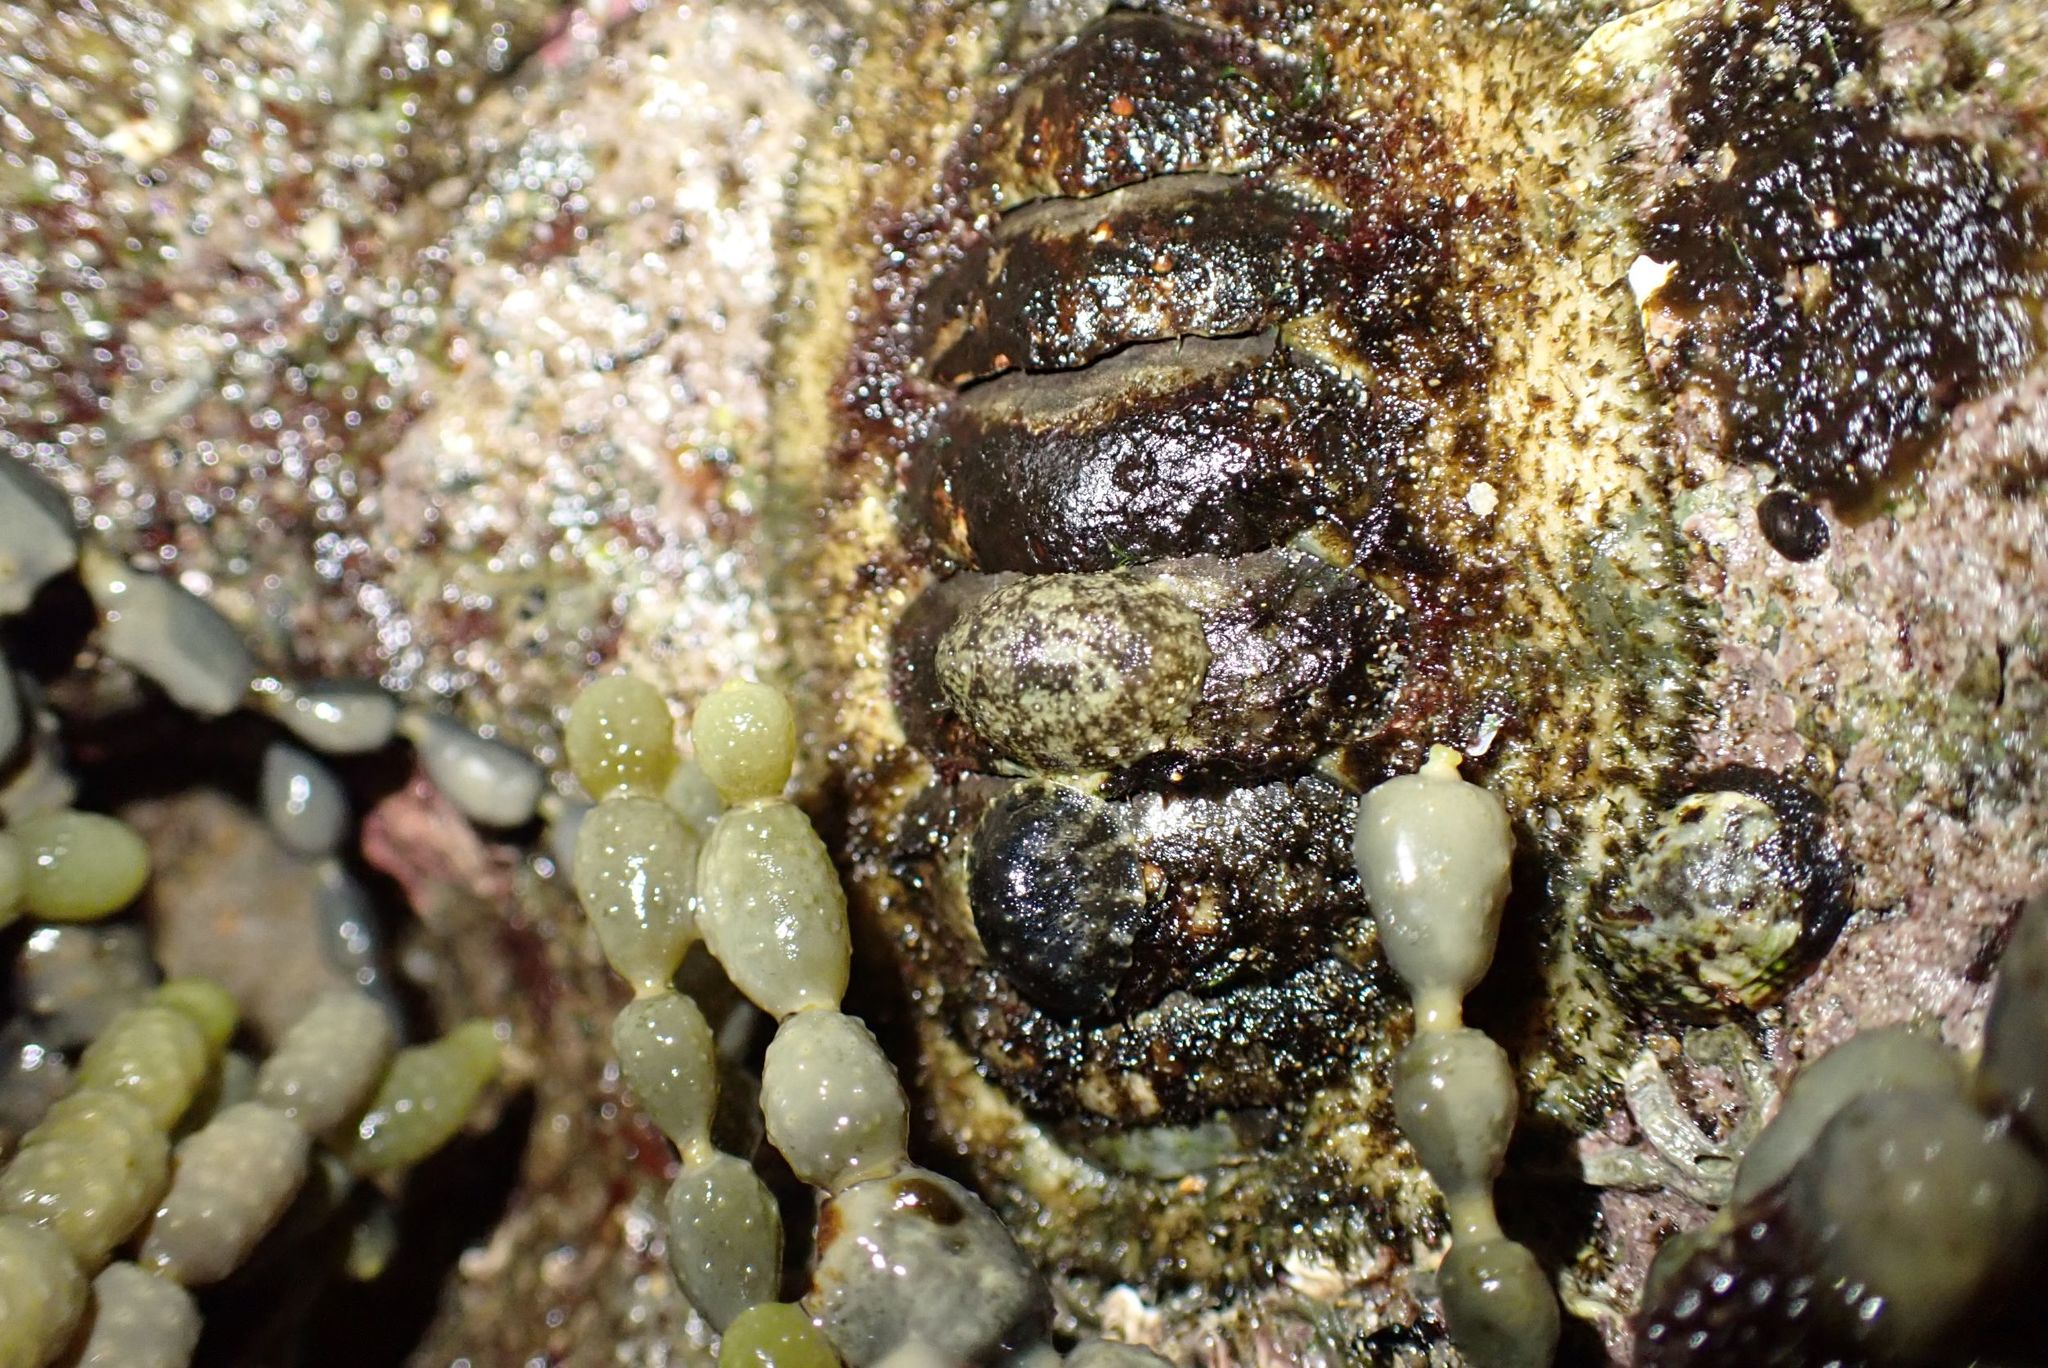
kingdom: Animalia
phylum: Mollusca
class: Gastropoda
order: Systellommatophora
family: Onchidiidae
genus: Onchidella
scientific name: Onchidella nigricans
